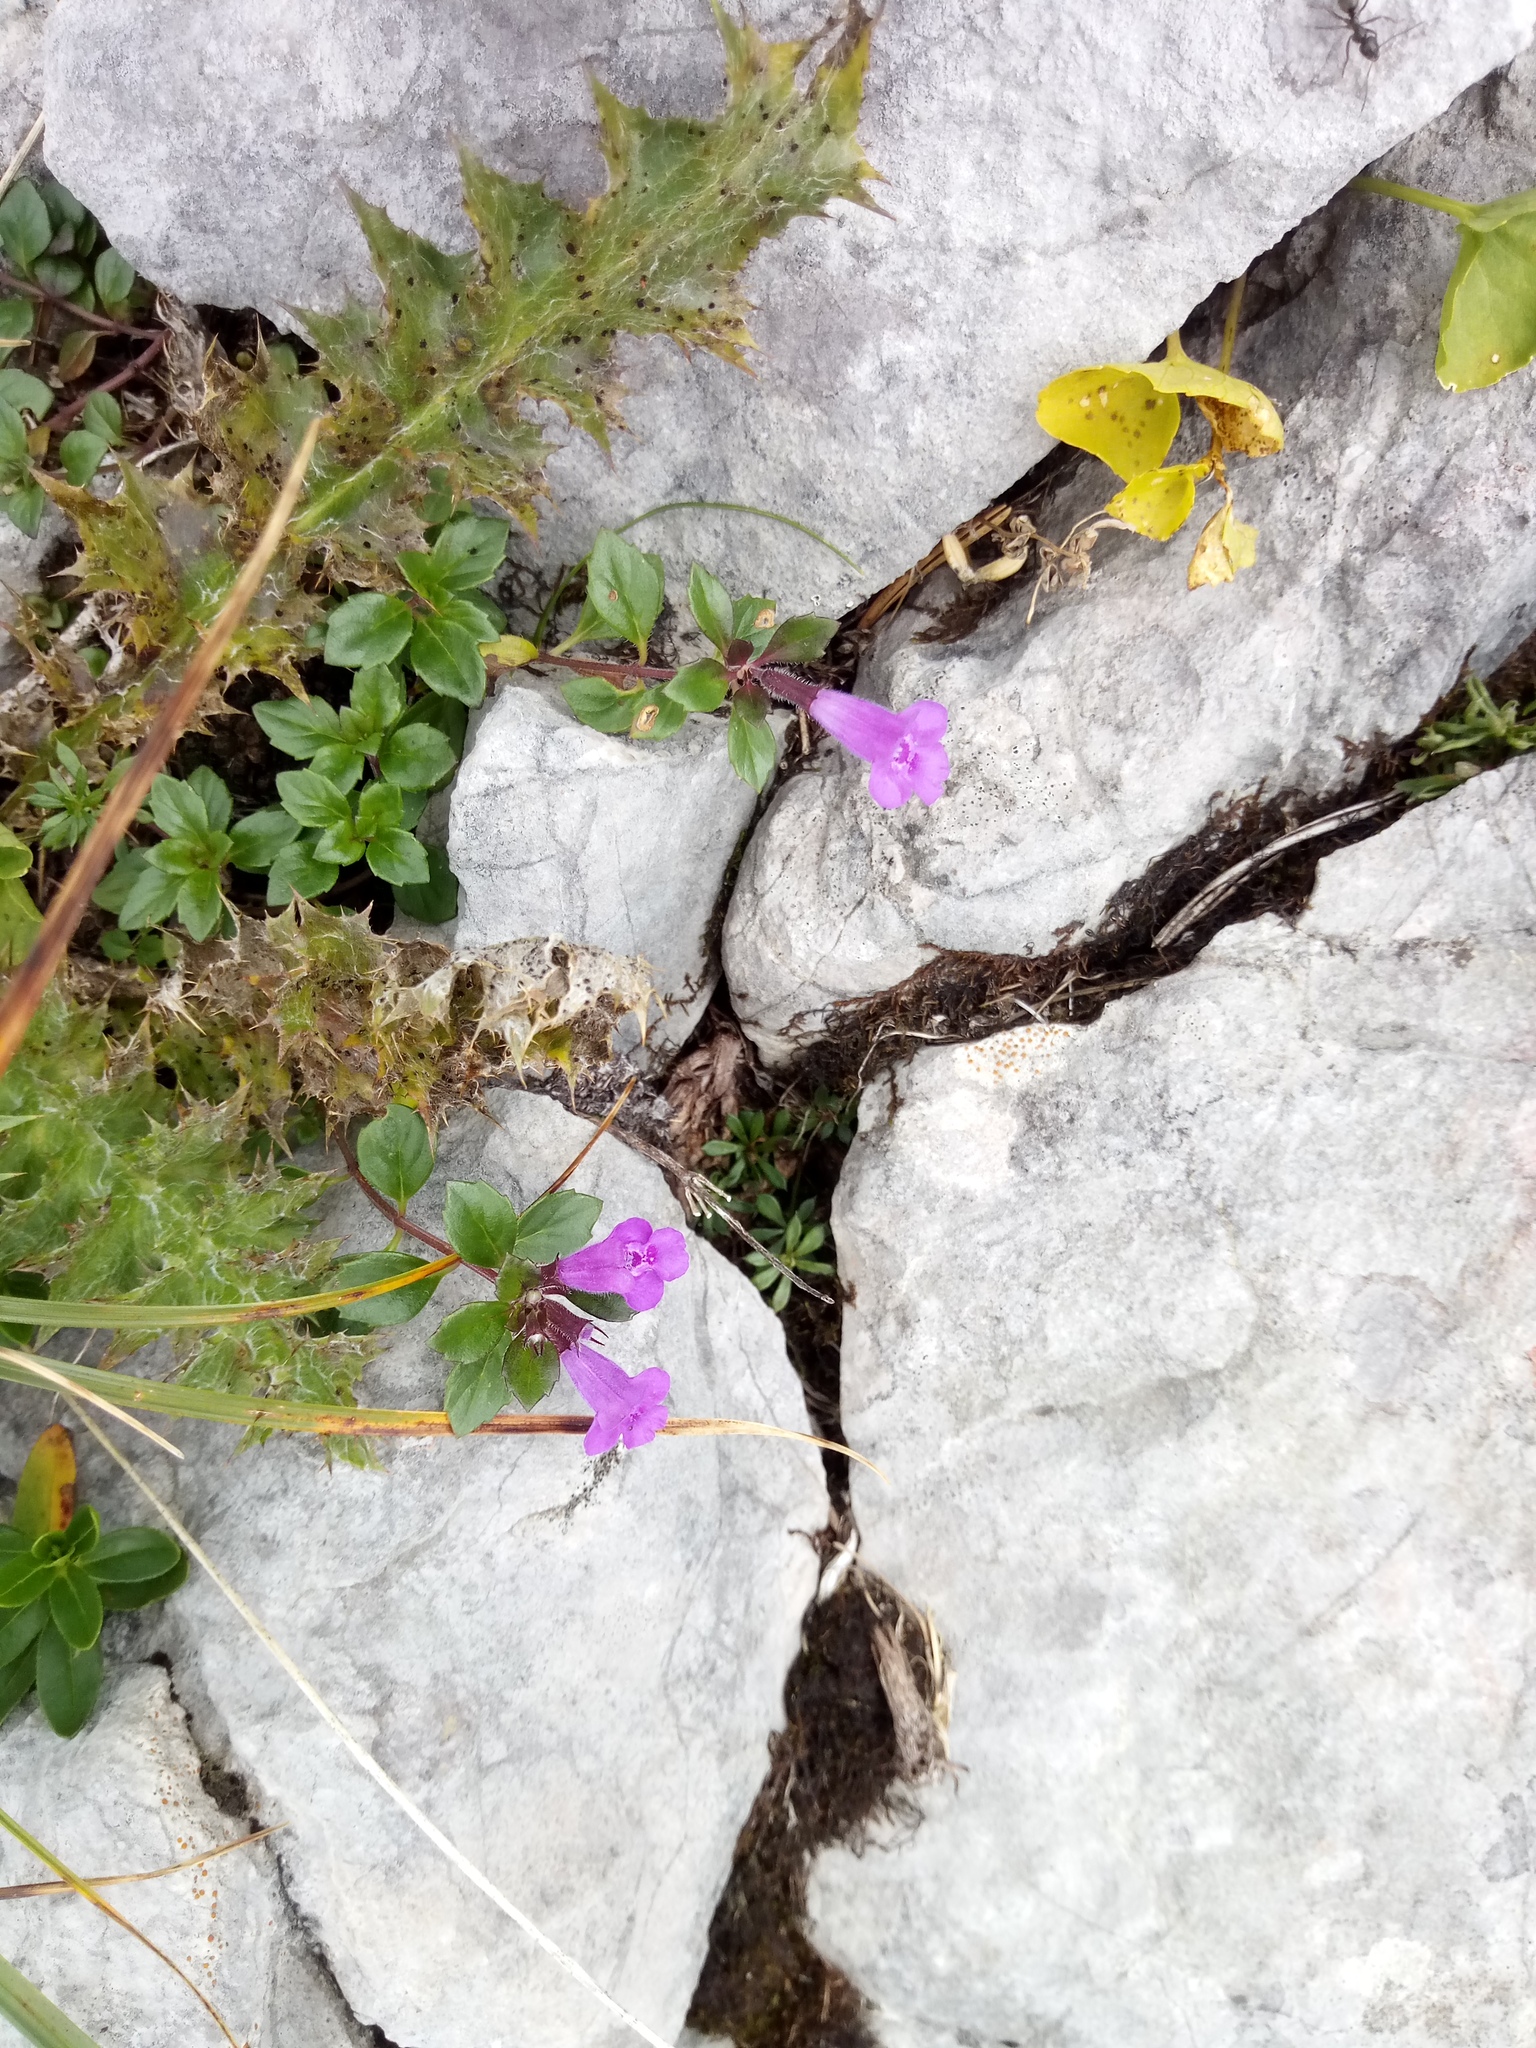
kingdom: Plantae
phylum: Tracheophyta
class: Magnoliopsida
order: Lamiales
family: Lamiaceae
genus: Clinopodium
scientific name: Clinopodium alpinum
